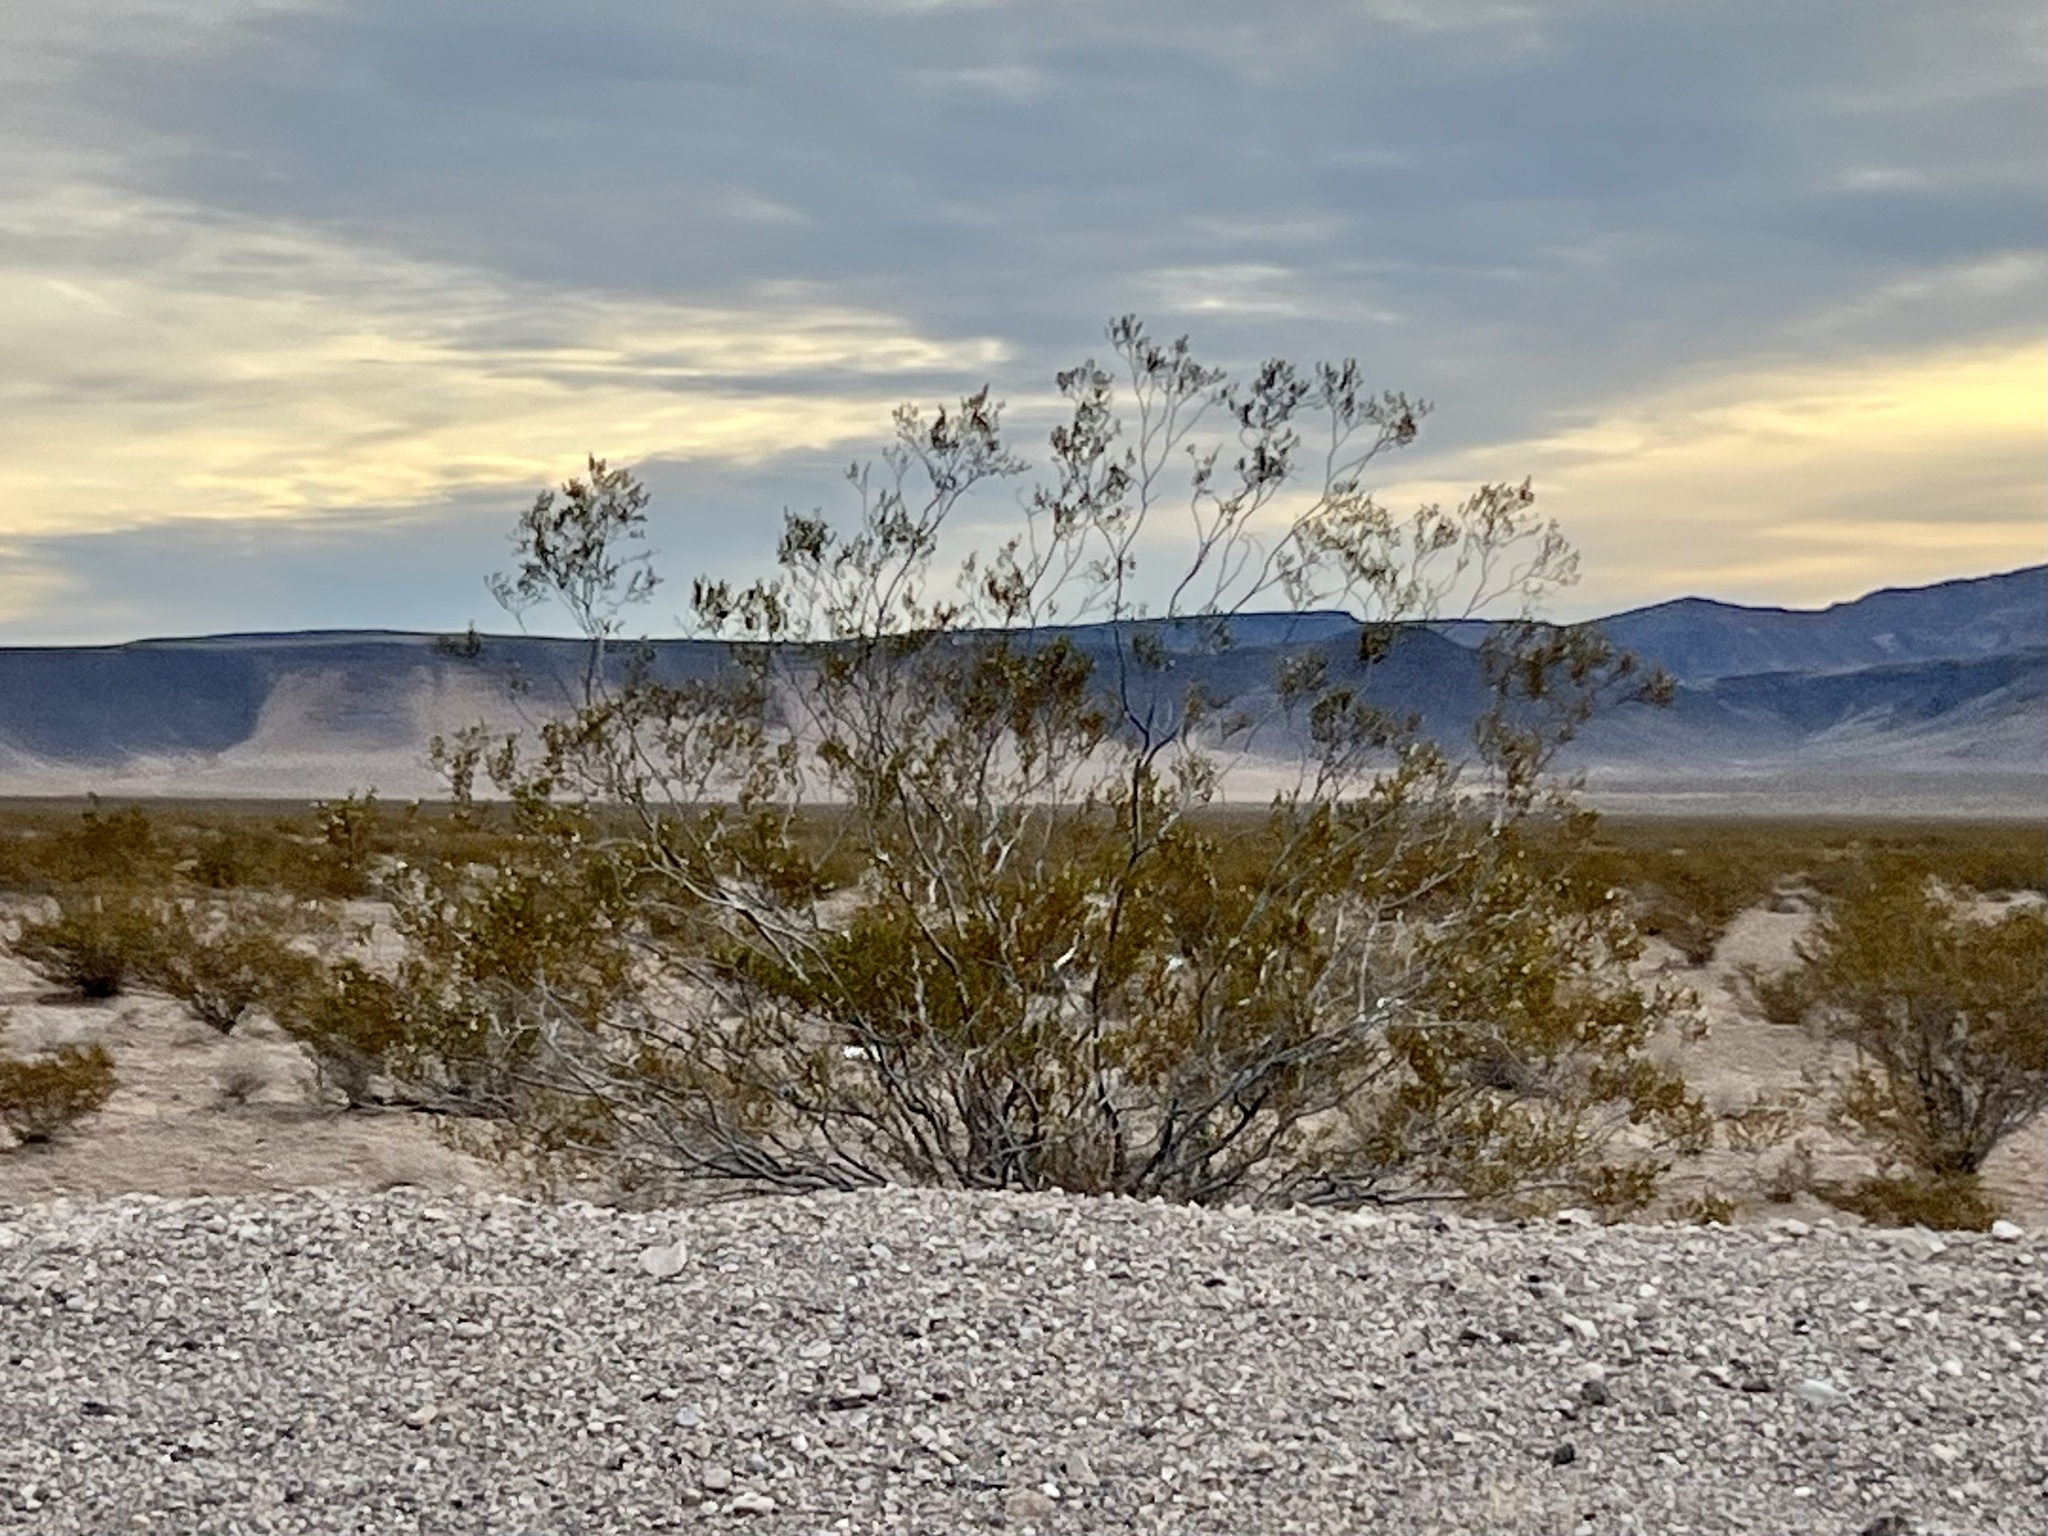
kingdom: Plantae
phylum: Tracheophyta
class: Magnoliopsida
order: Zygophyllales
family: Zygophyllaceae
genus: Larrea
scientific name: Larrea tridentata
